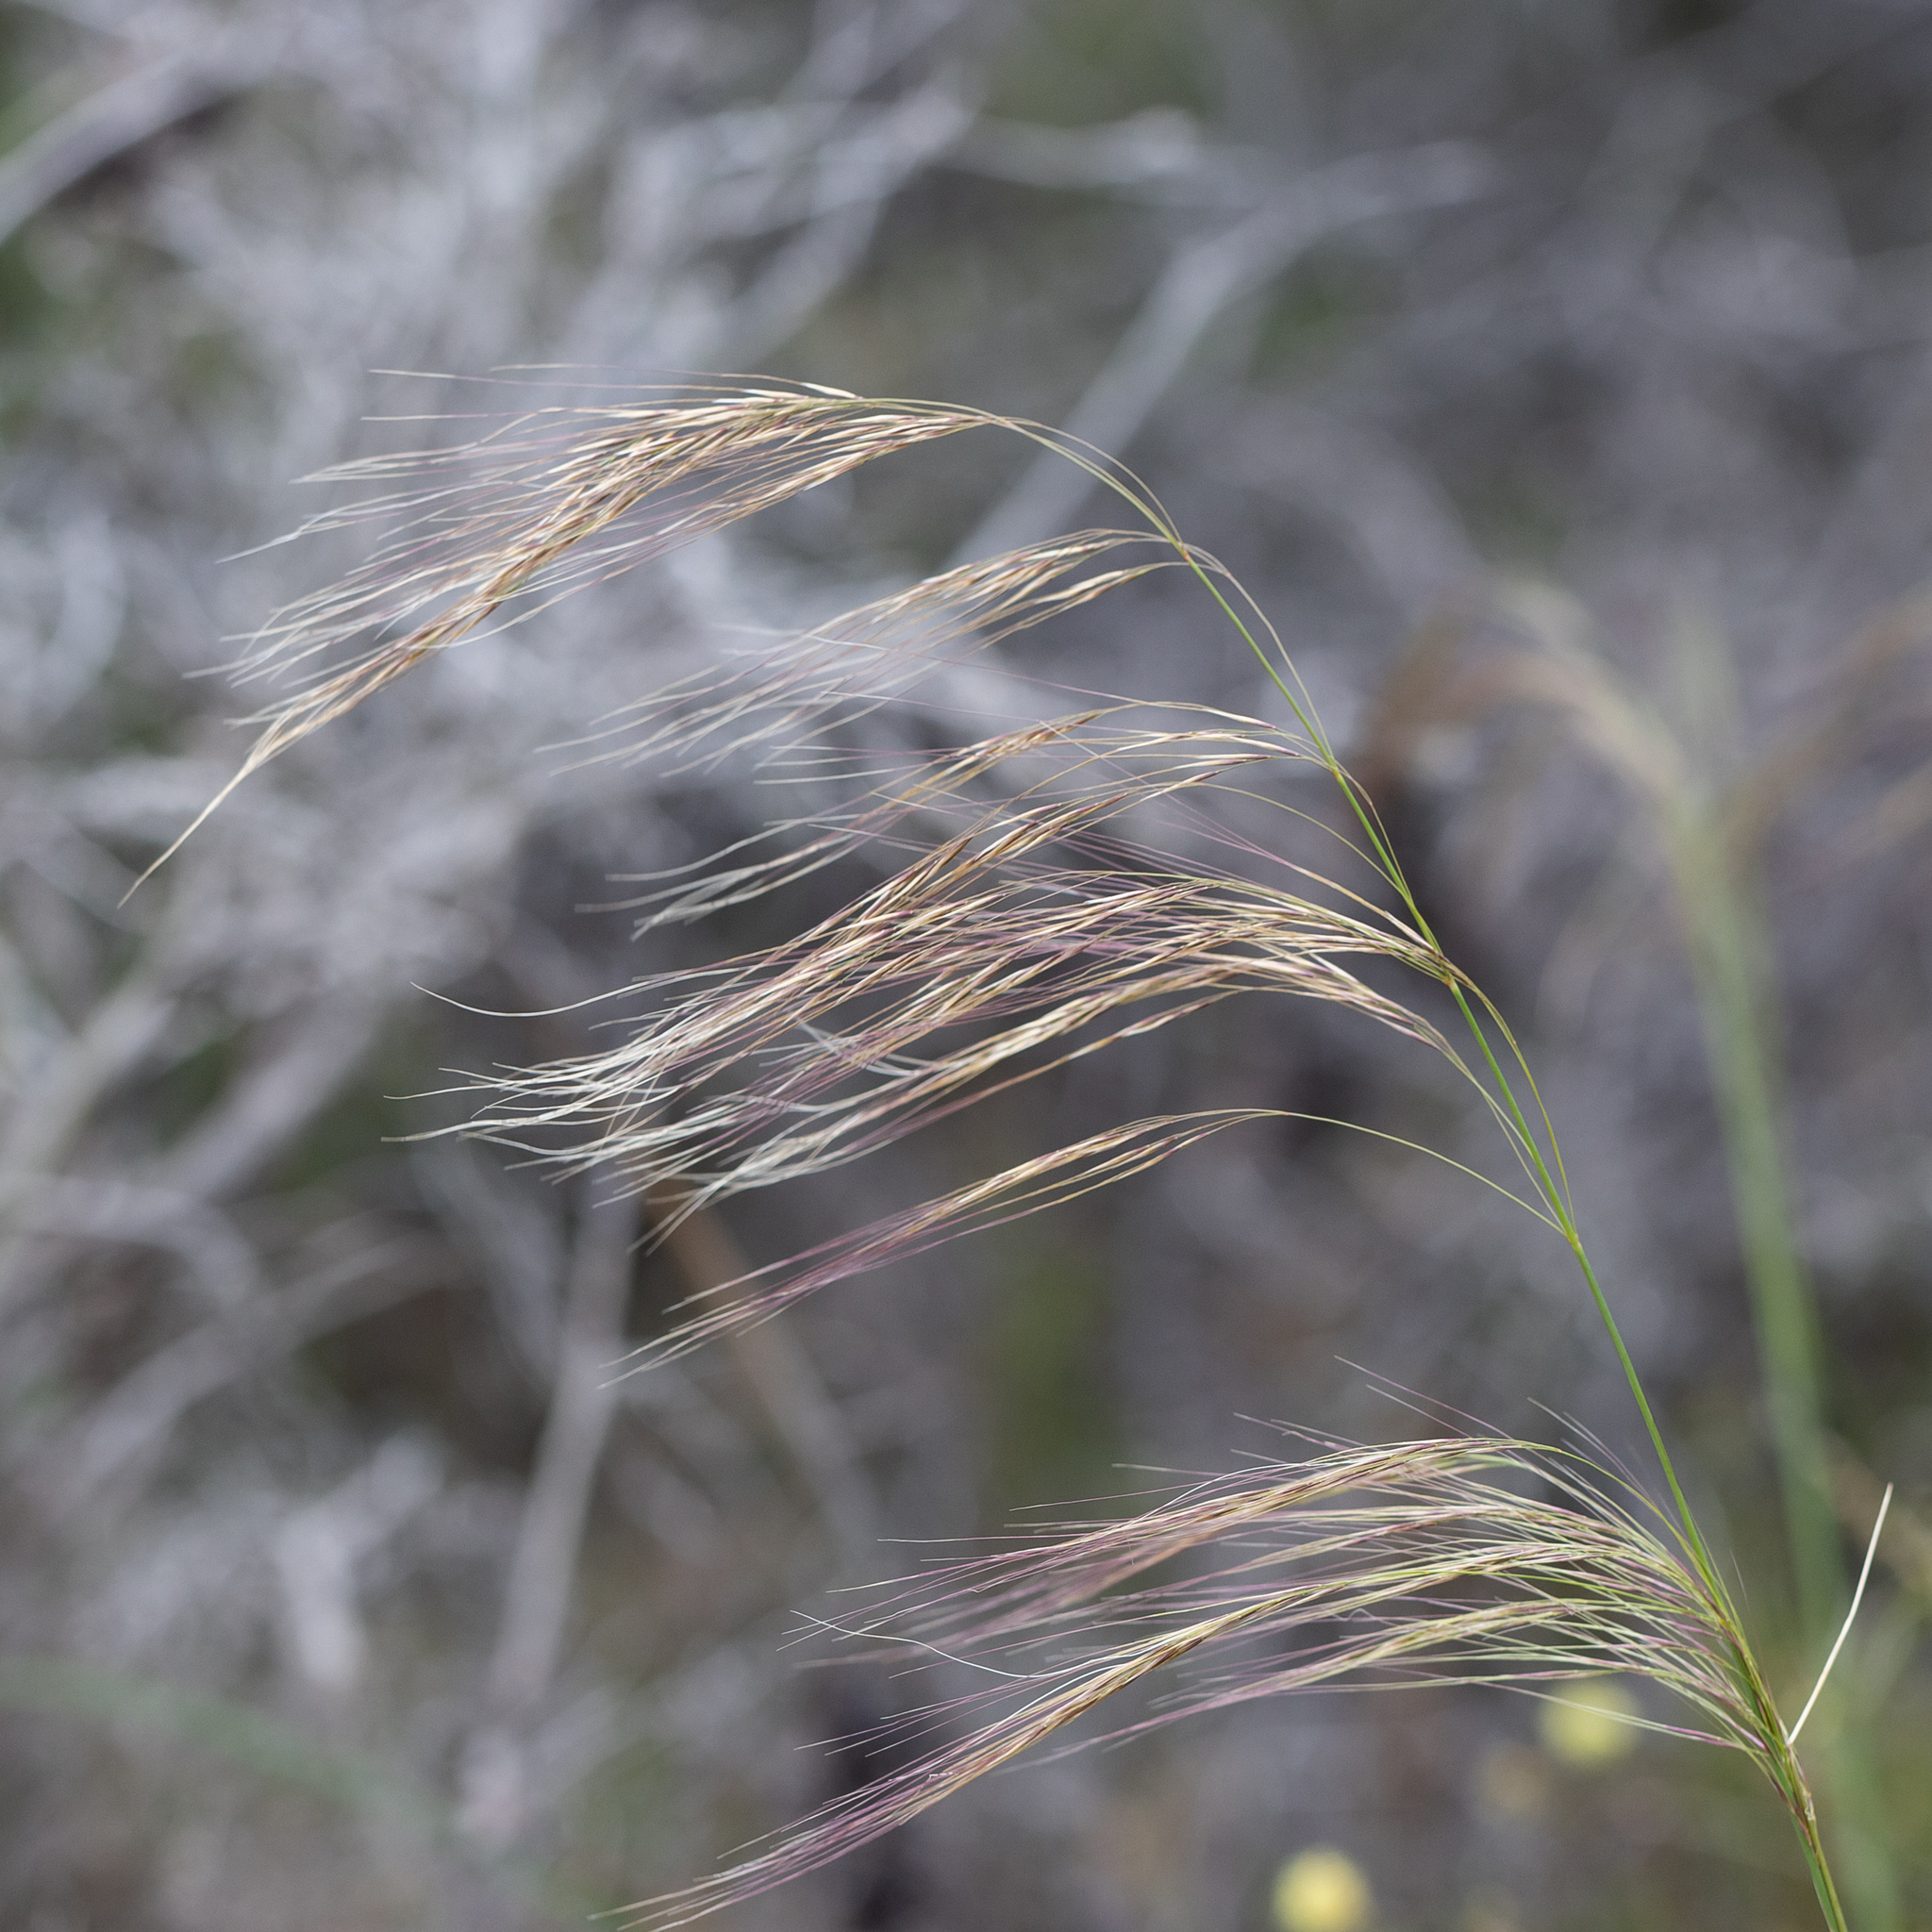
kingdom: Plantae
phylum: Tracheophyta
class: Liliopsida
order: Poales
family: Poaceae
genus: Austrostipa
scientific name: Austrostipa acrociliata
